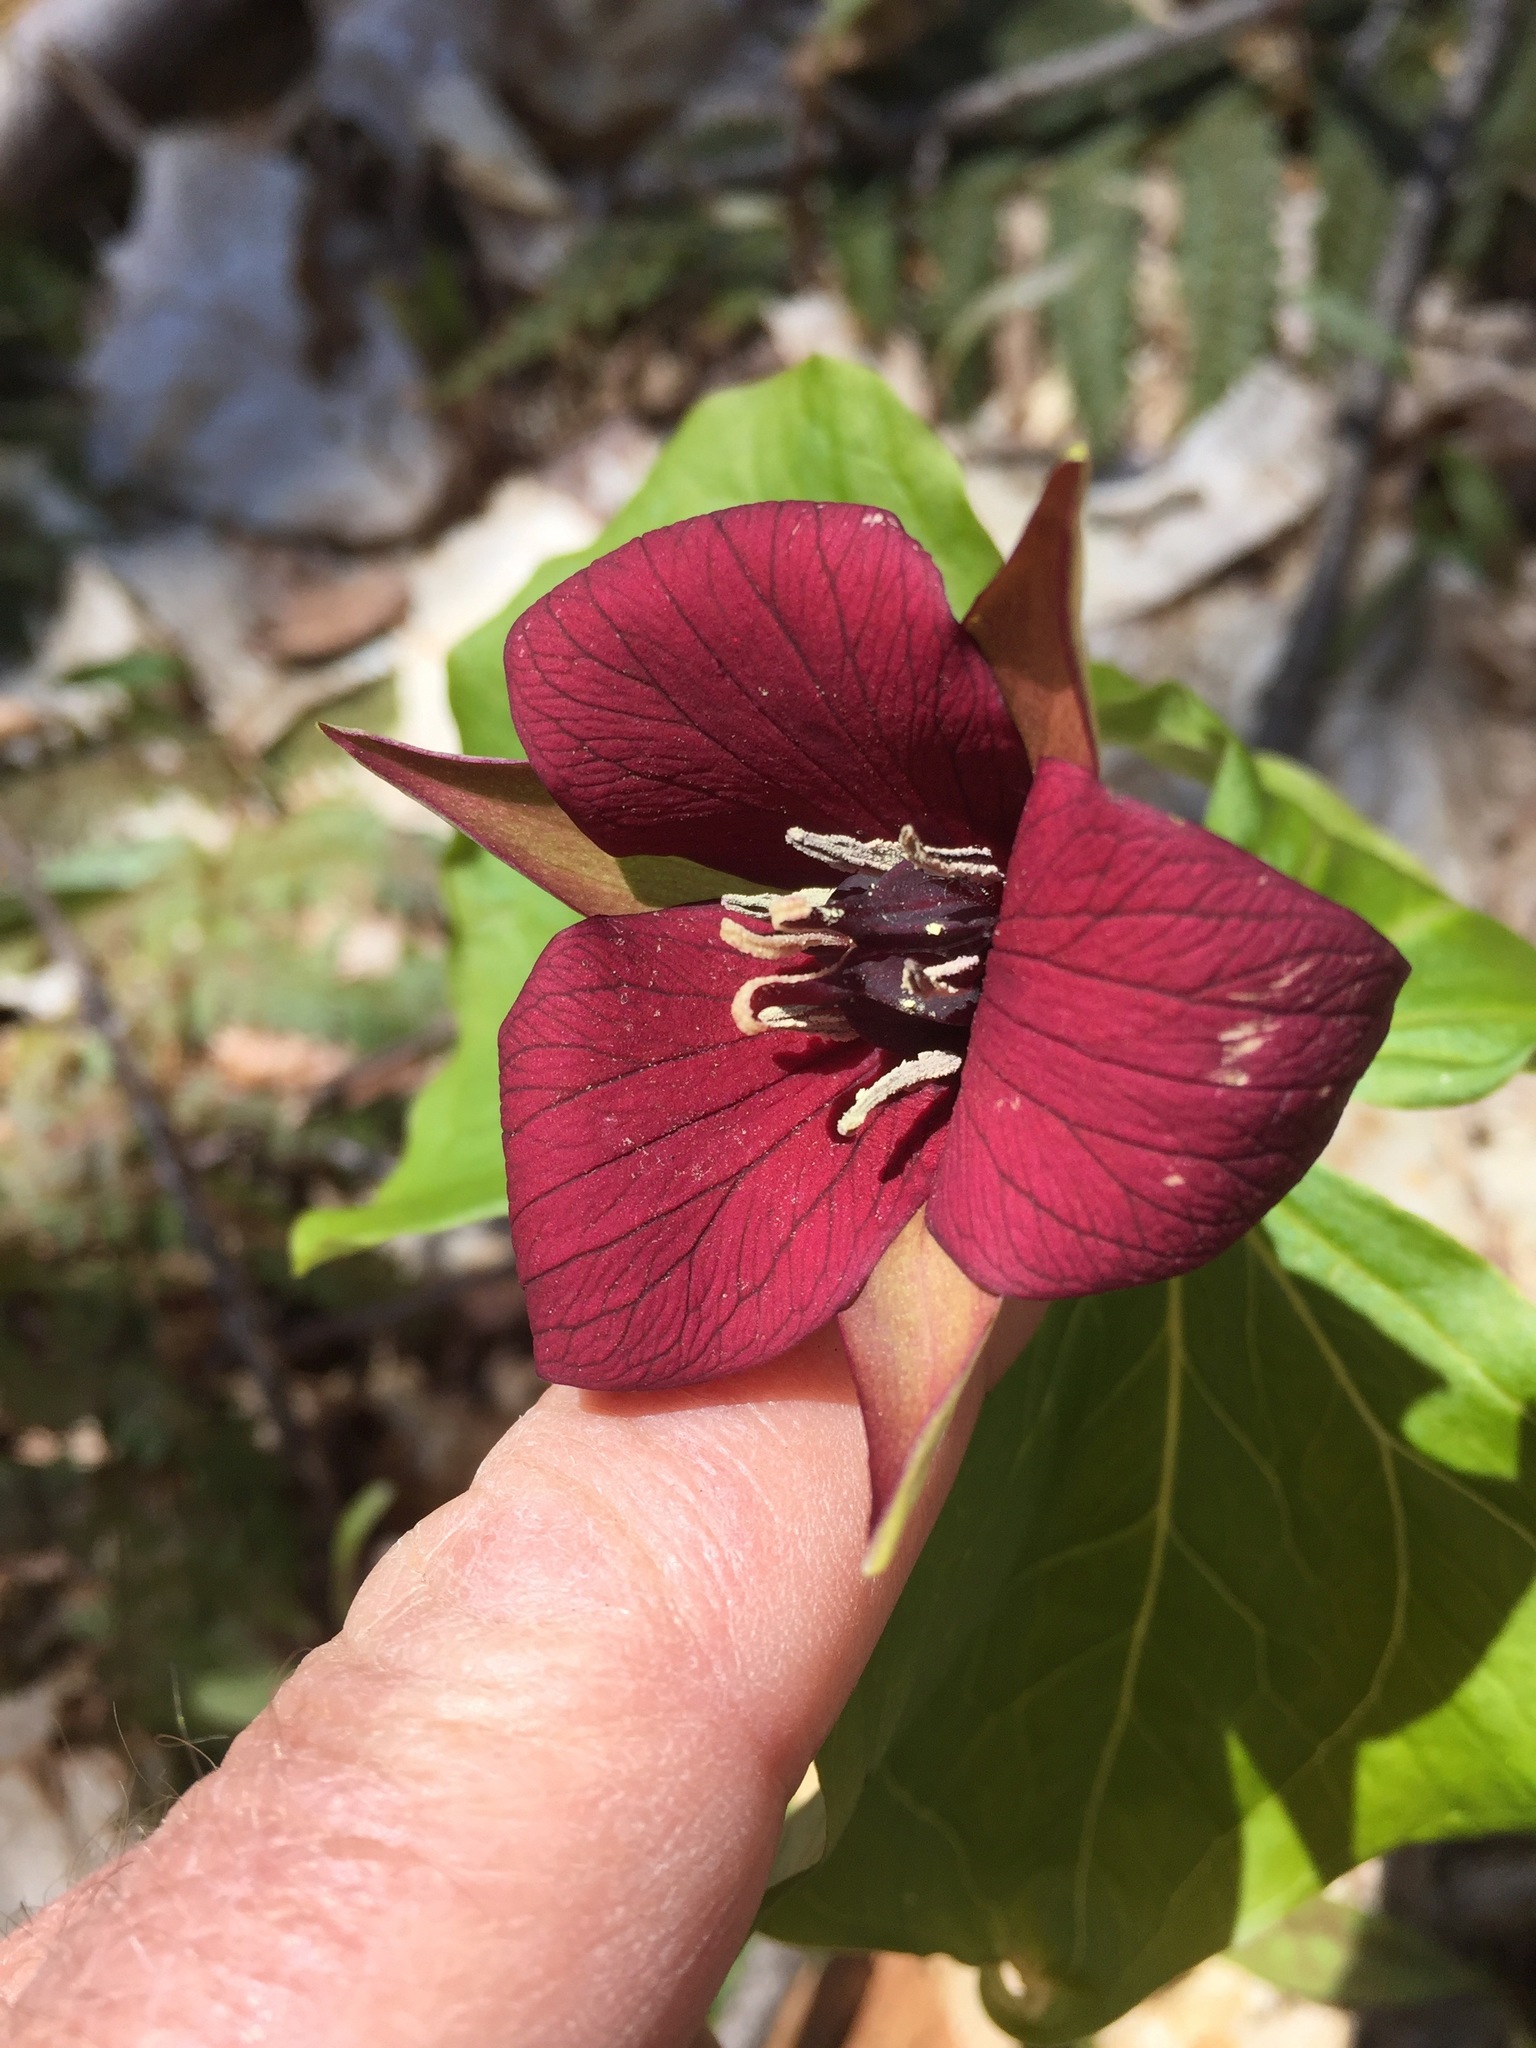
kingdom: Plantae
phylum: Tracheophyta
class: Liliopsida
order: Liliales
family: Melanthiaceae
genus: Trillium
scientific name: Trillium erectum
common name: Purple trillium
